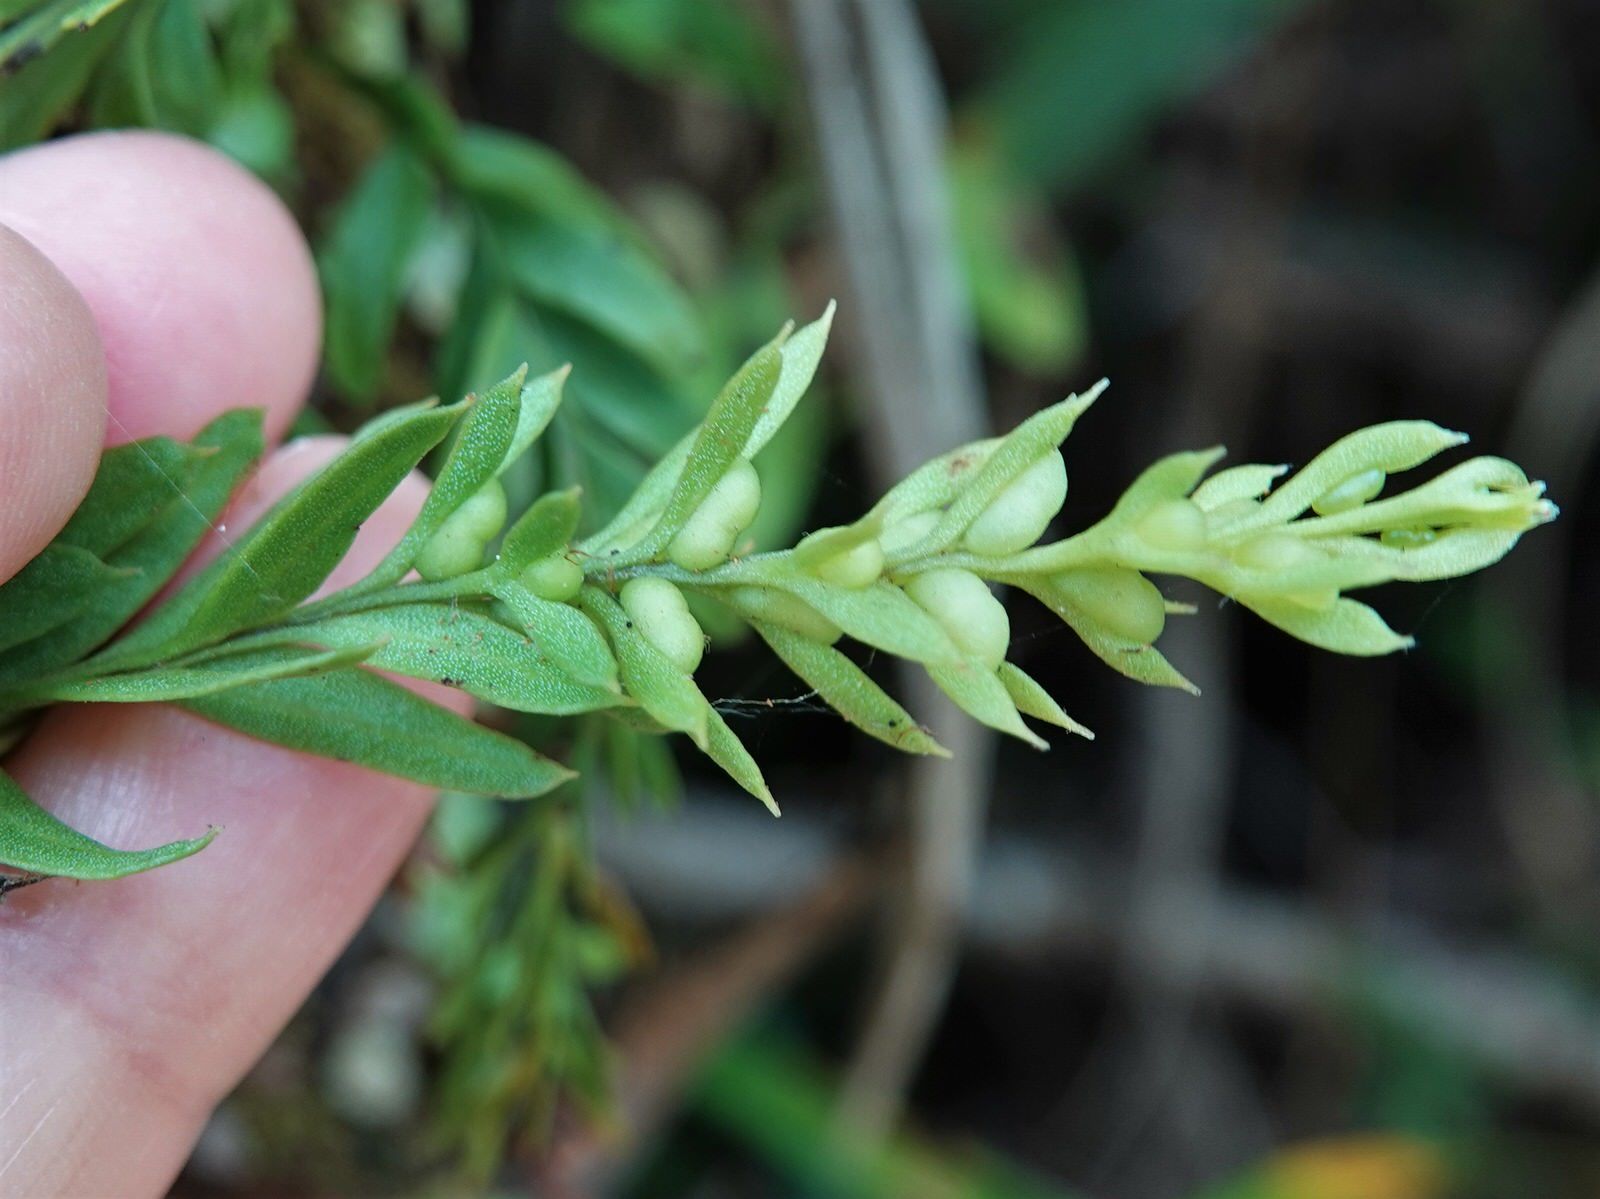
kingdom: Plantae
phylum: Tracheophyta
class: Polypodiopsida
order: Psilotales
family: Psilotaceae
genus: Tmesipteris
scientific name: Tmesipteris elongata
